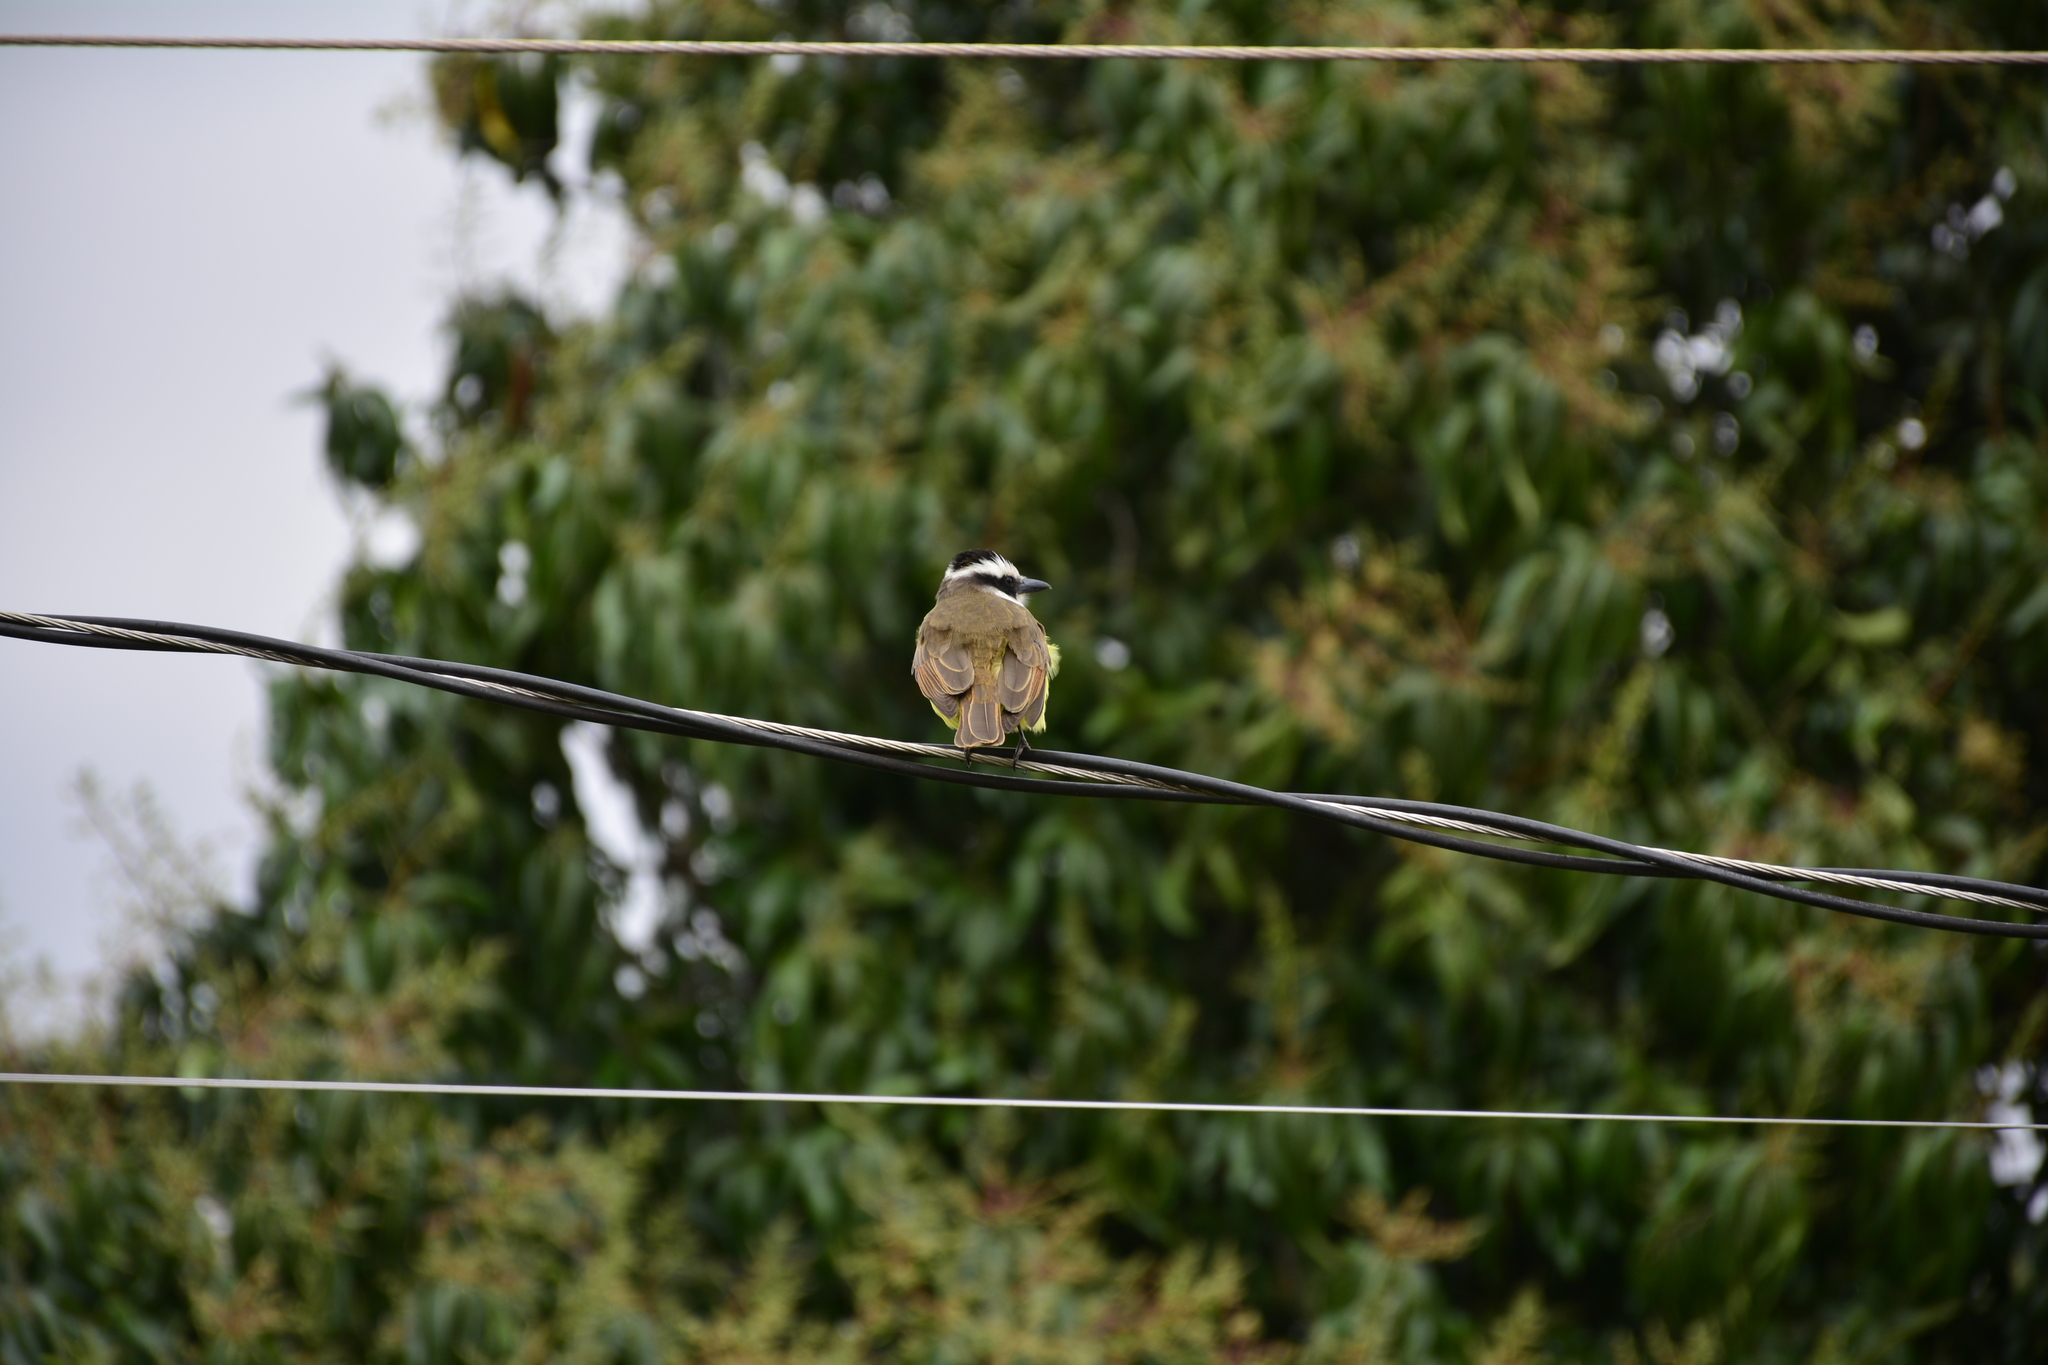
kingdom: Animalia
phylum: Chordata
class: Aves
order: Passeriformes
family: Tyrannidae
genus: Pitangus
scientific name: Pitangus sulphuratus
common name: Great kiskadee
